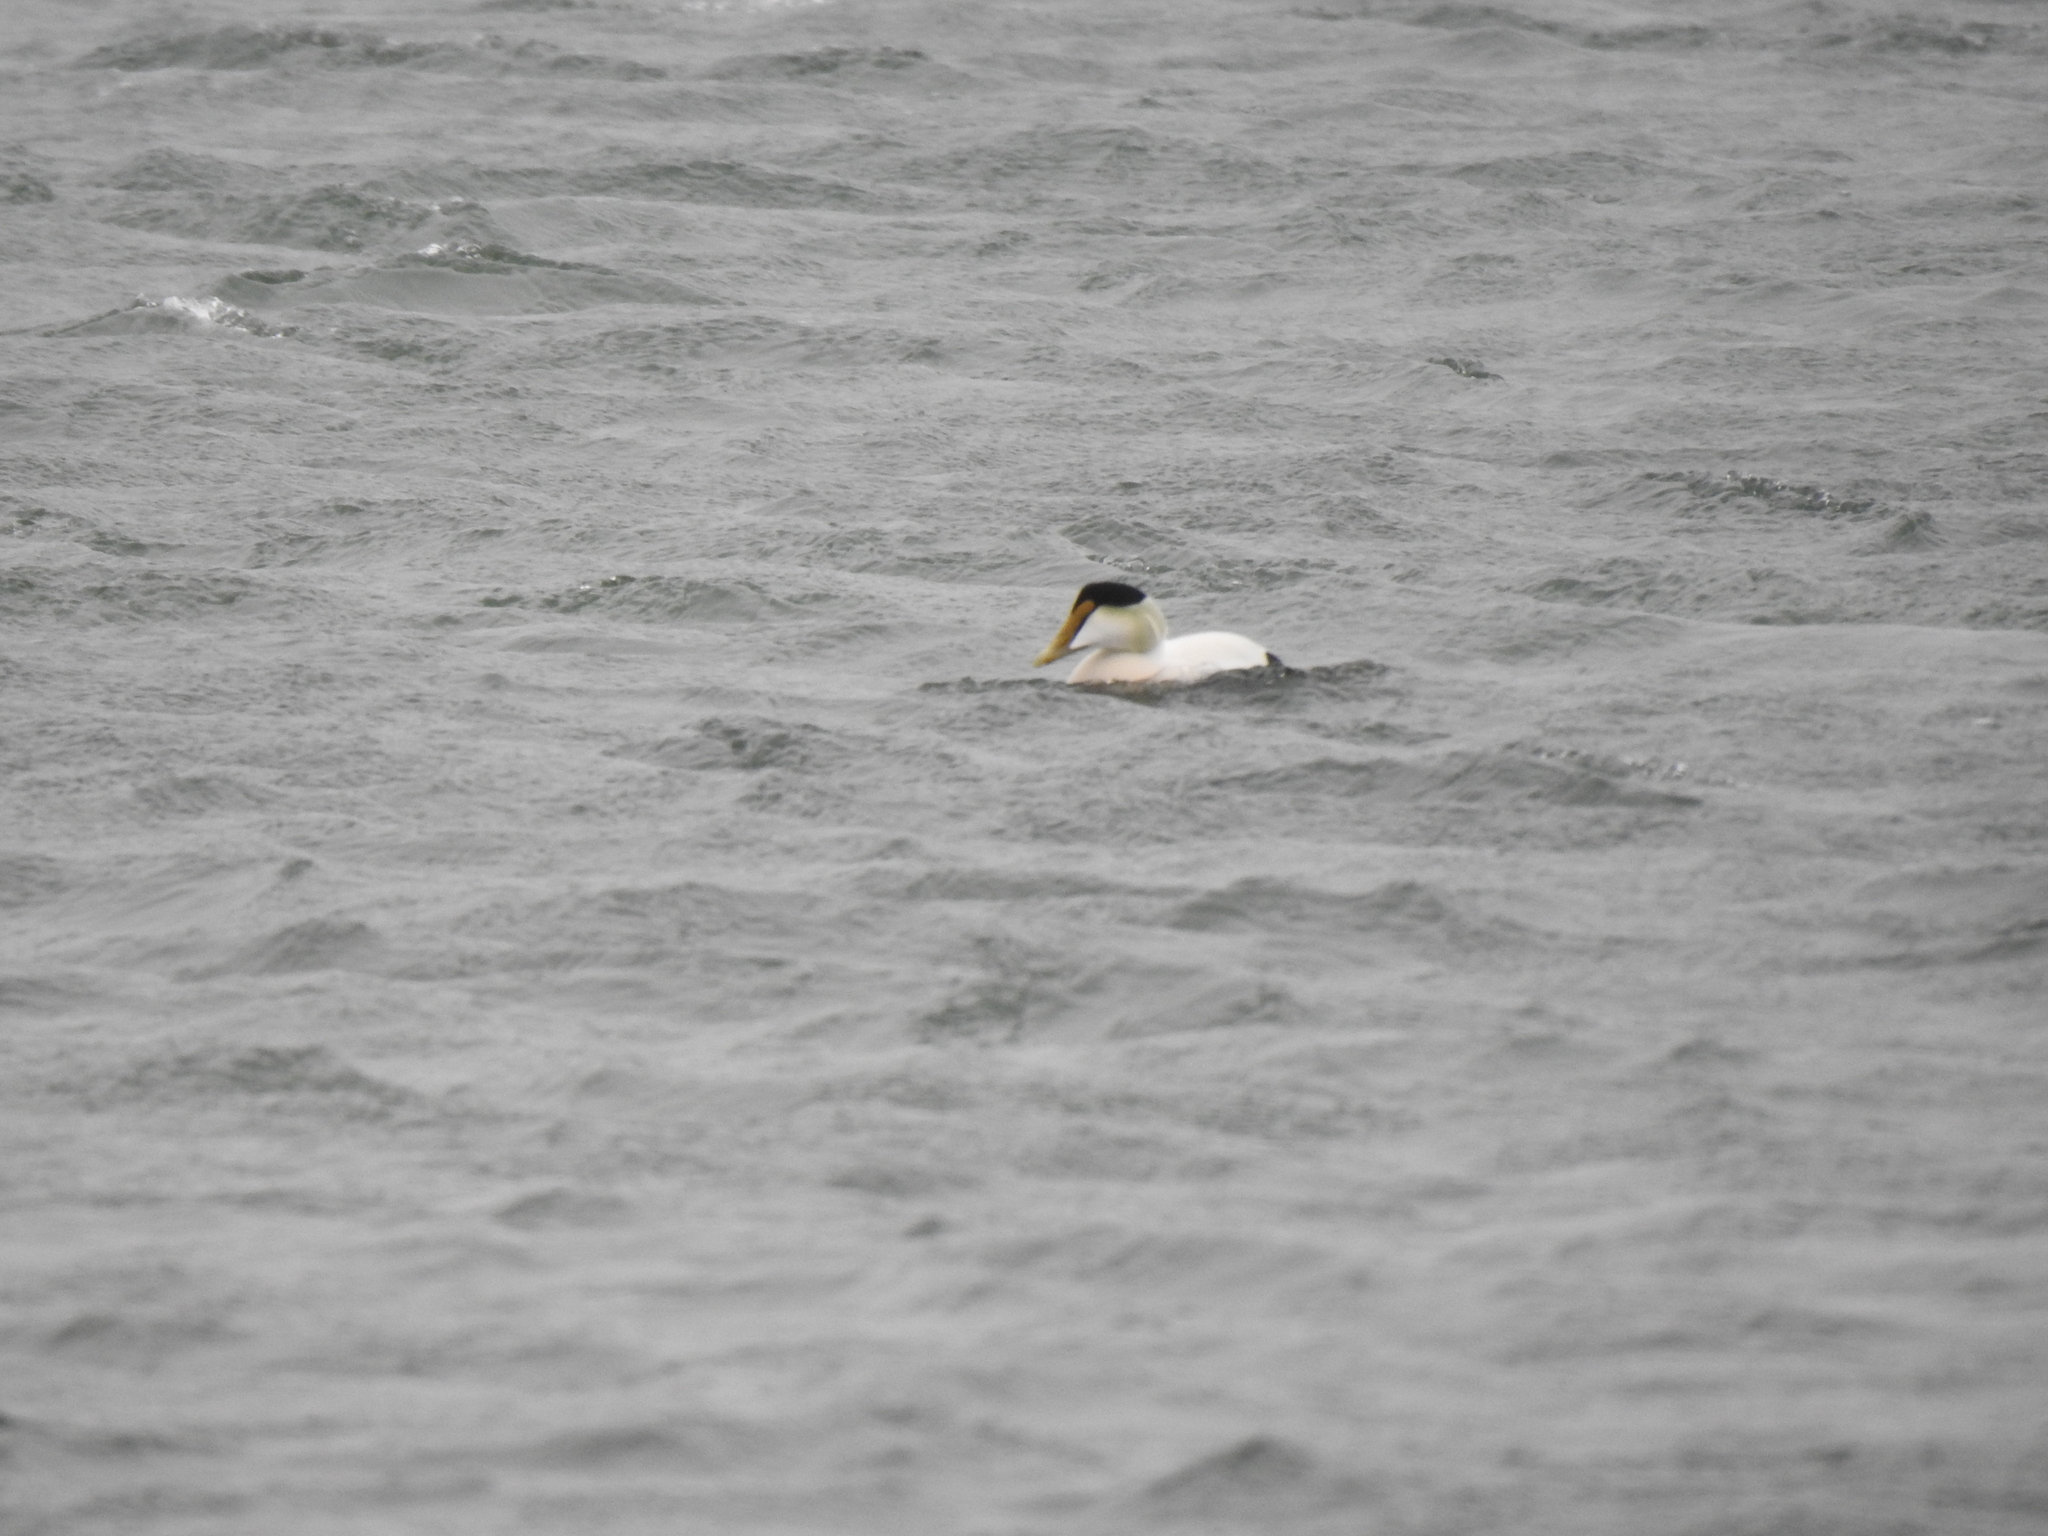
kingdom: Animalia
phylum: Chordata
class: Aves
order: Anseriformes
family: Anatidae
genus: Somateria
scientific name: Somateria mollissima
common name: Common eider
